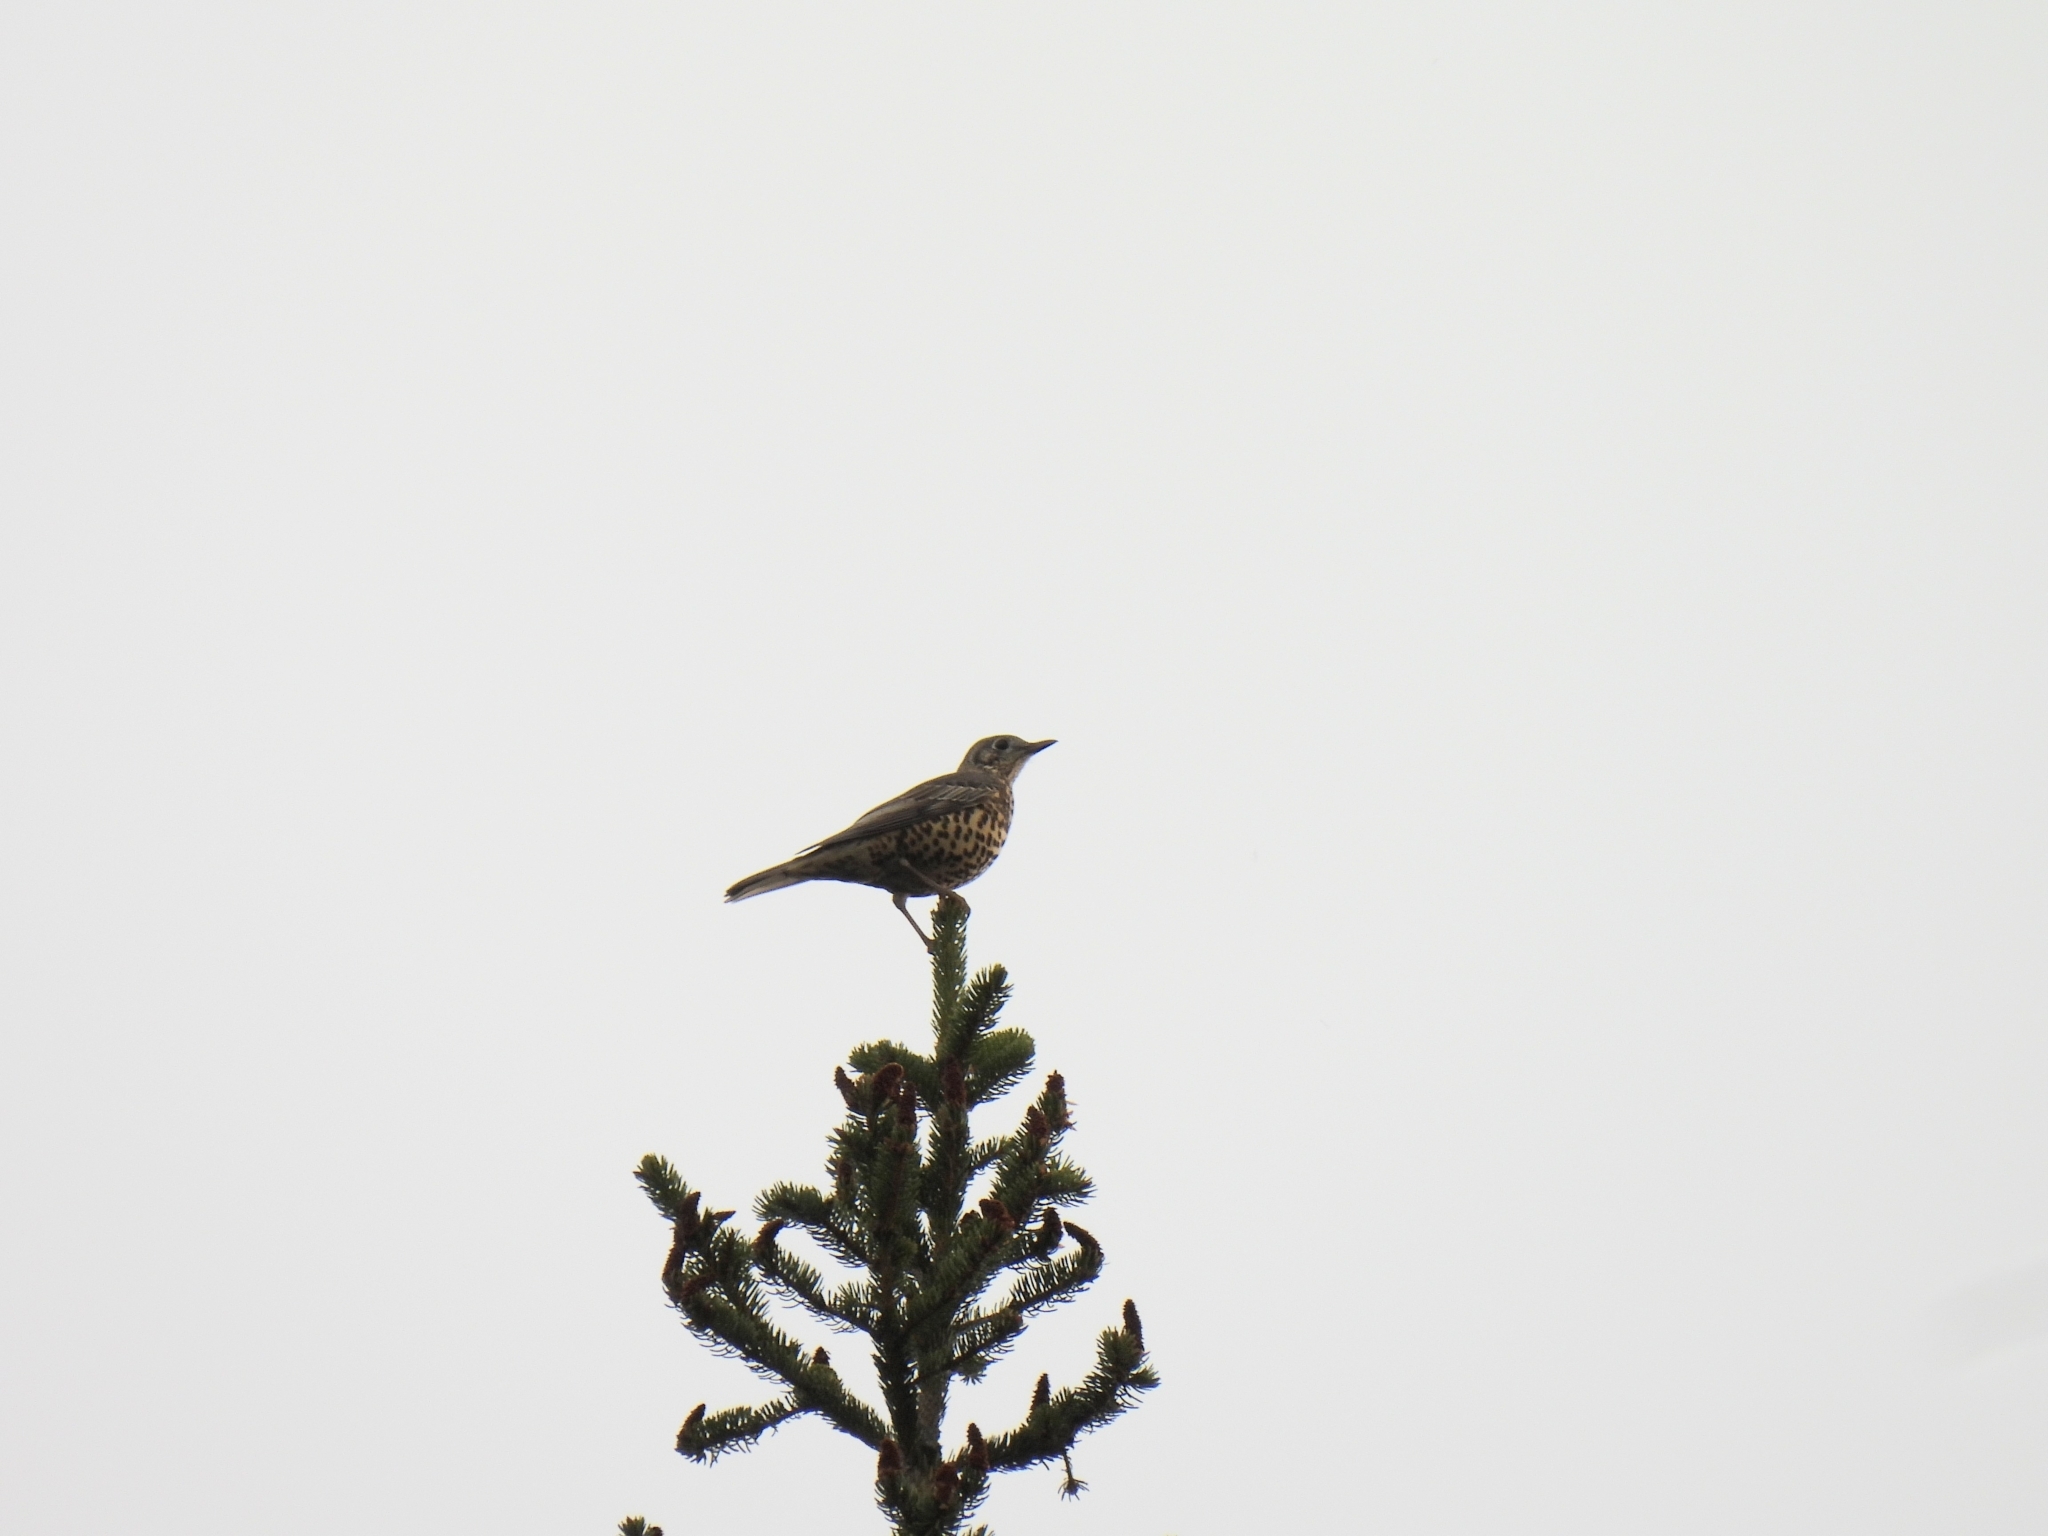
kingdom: Animalia
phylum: Chordata
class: Aves
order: Passeriformes
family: Turdidae
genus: Turdus
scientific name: Turdus viscivorus
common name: Mistle thrush
